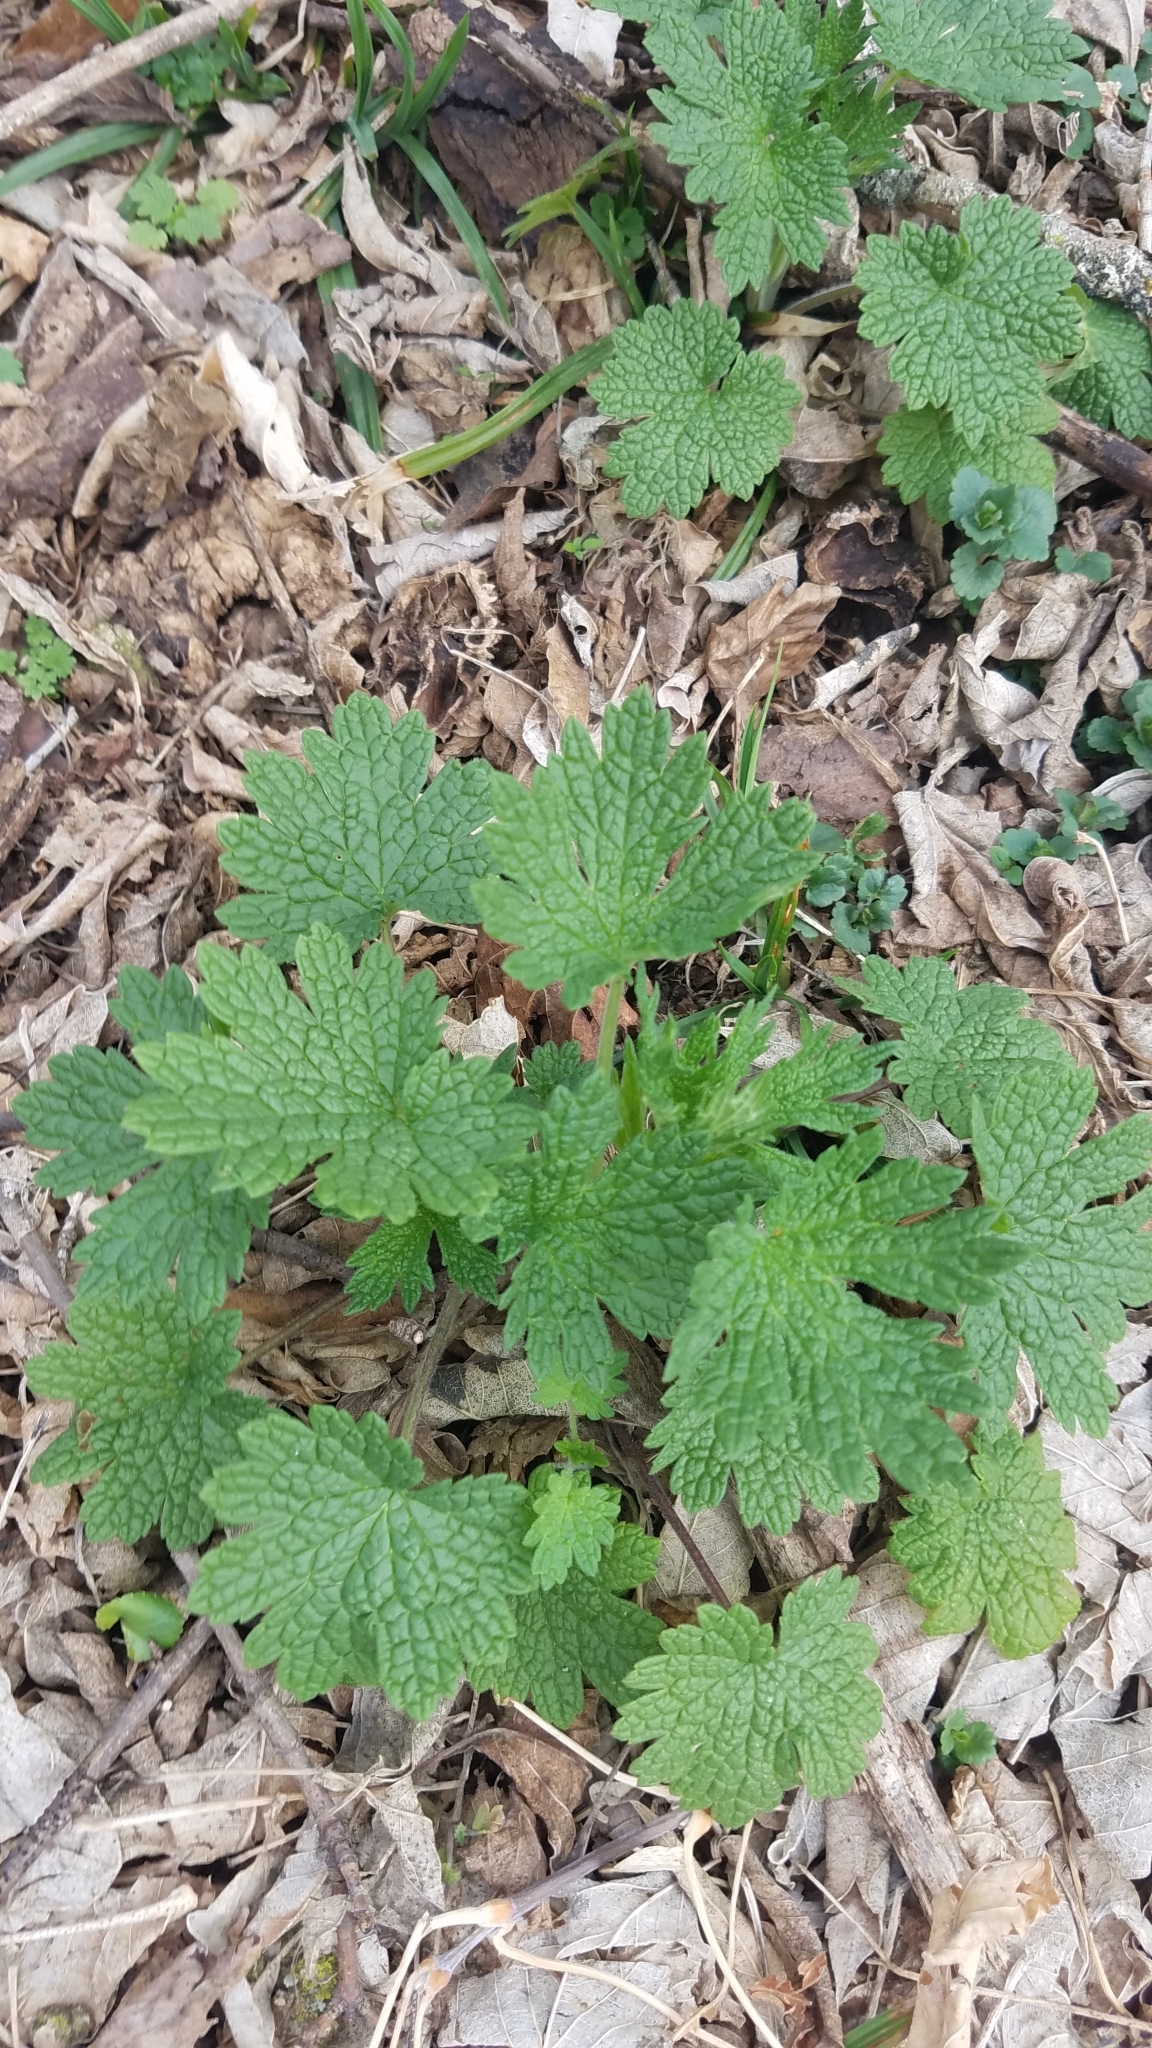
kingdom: Plantae
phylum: Tracheophyta
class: Magnoliopsida
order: Lamiales
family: Lamiaceae
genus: Leonurus
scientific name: Leonurus cardiaca
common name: Motherwort
